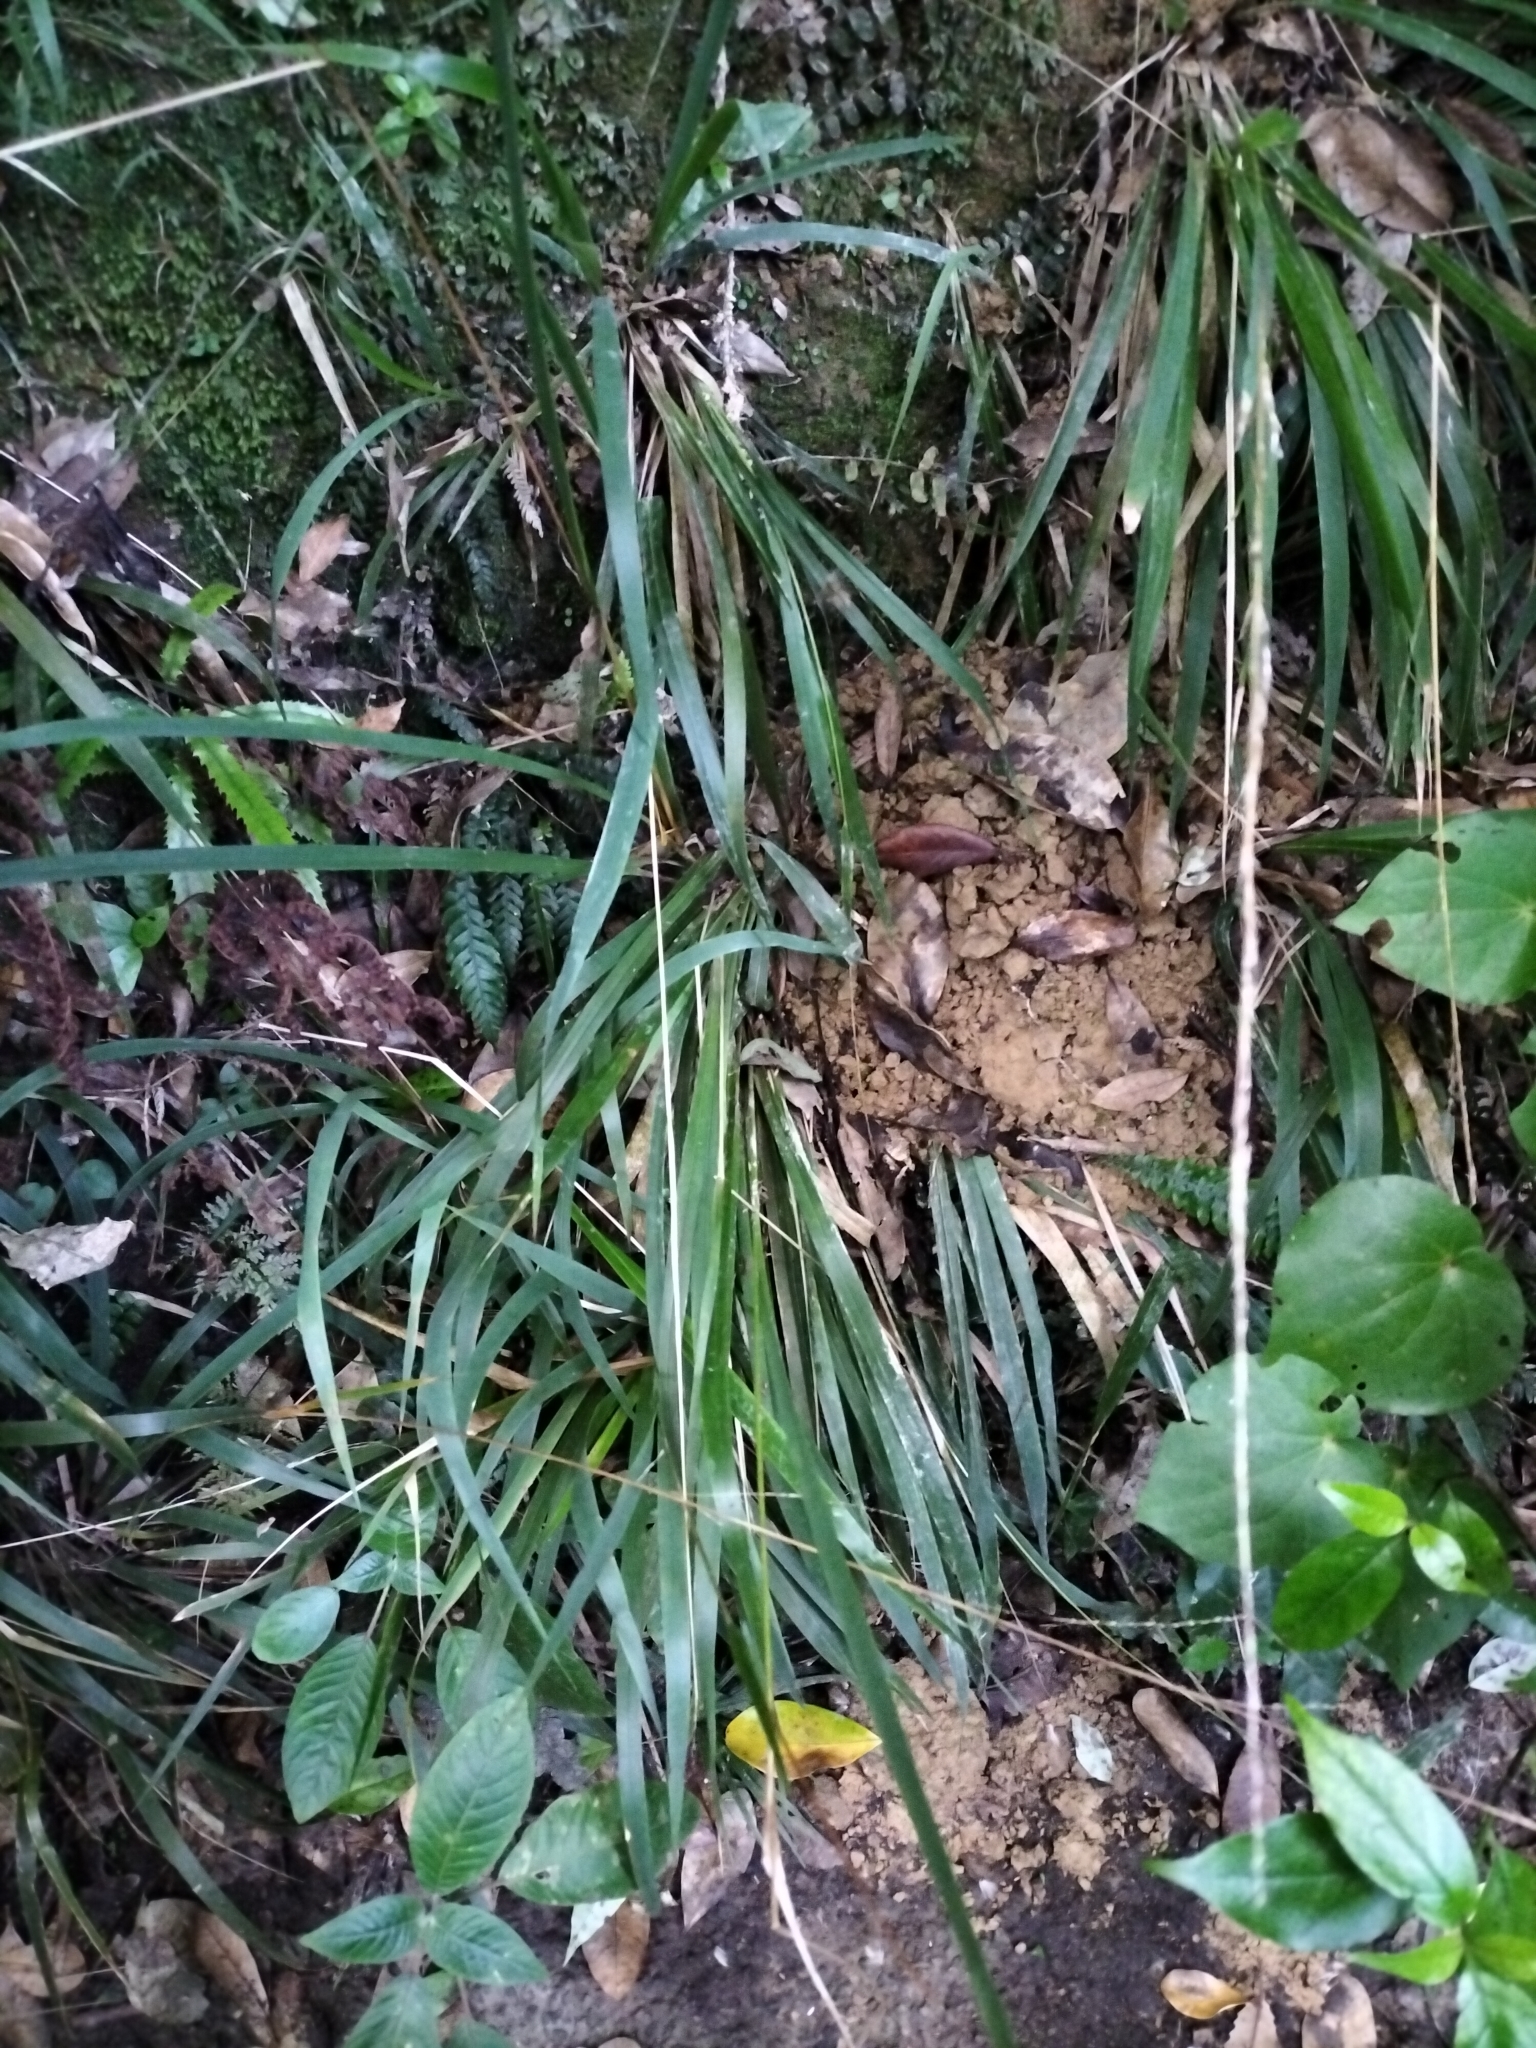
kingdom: Plantae
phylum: Tracheophyta
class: Liliopsida
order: Poales
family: Poaceae
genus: Ehrharta
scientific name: Ehrharta diplax
